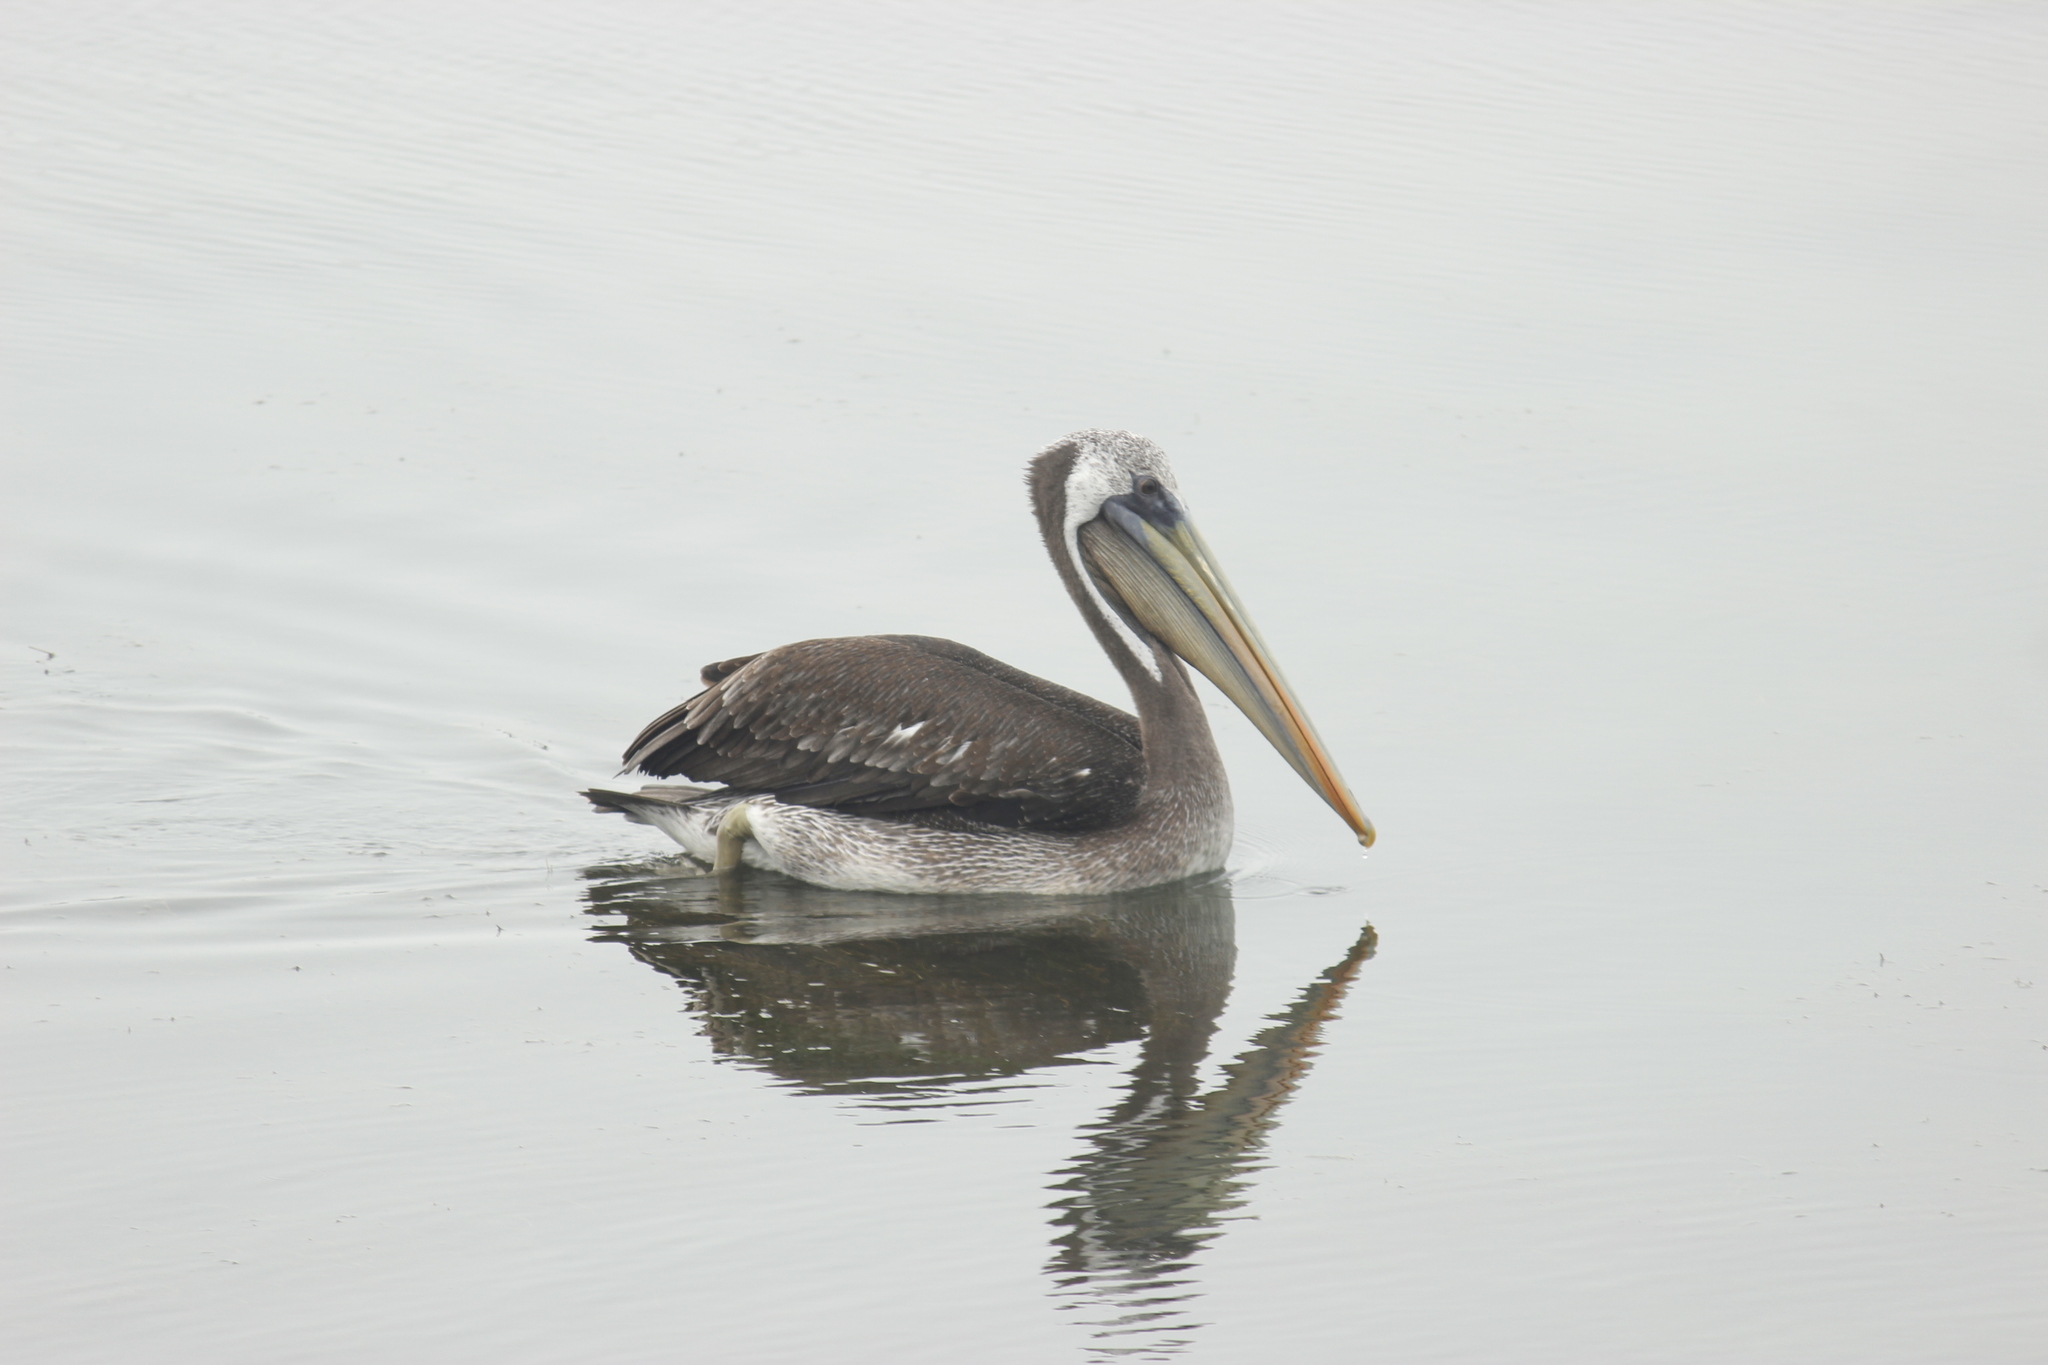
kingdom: Animalia
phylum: Chordata
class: Aves
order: Pelecaniformes
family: Pelecanidae
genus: Pelecanus
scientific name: Pelecanus thagus
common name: Peruvian pelican
